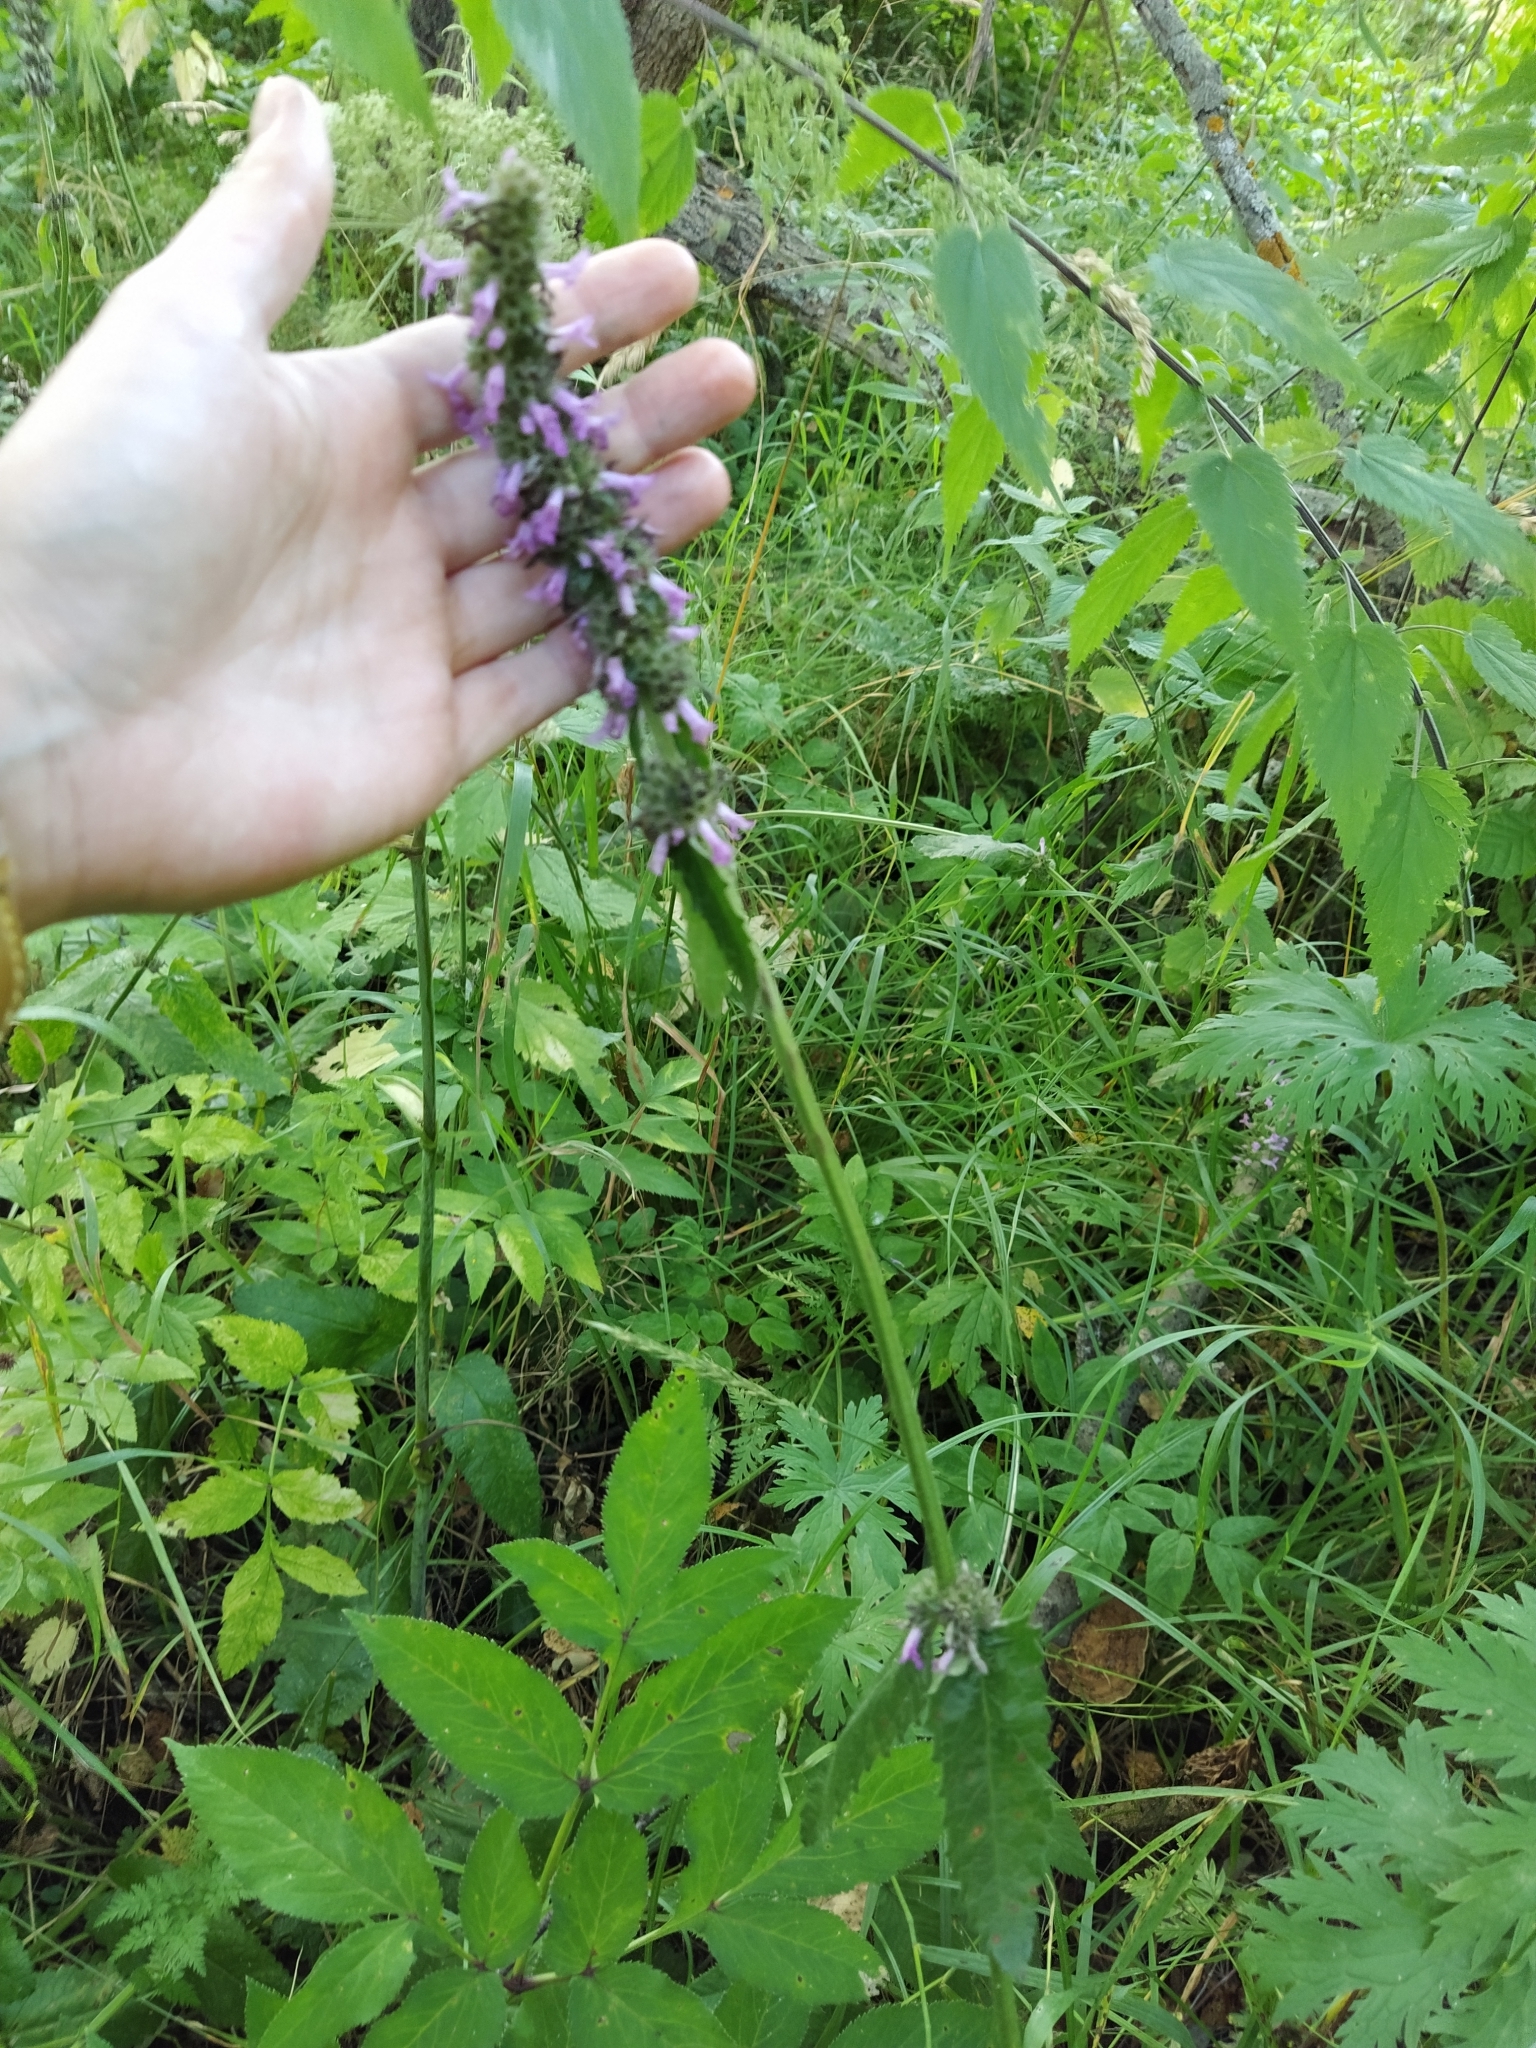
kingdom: Plantae
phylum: Tracheophyta
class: Magnoliopsida
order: Lamiales
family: Lamiaceae
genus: Betonica
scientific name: Betonica officinalis
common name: Bishop's-wort
